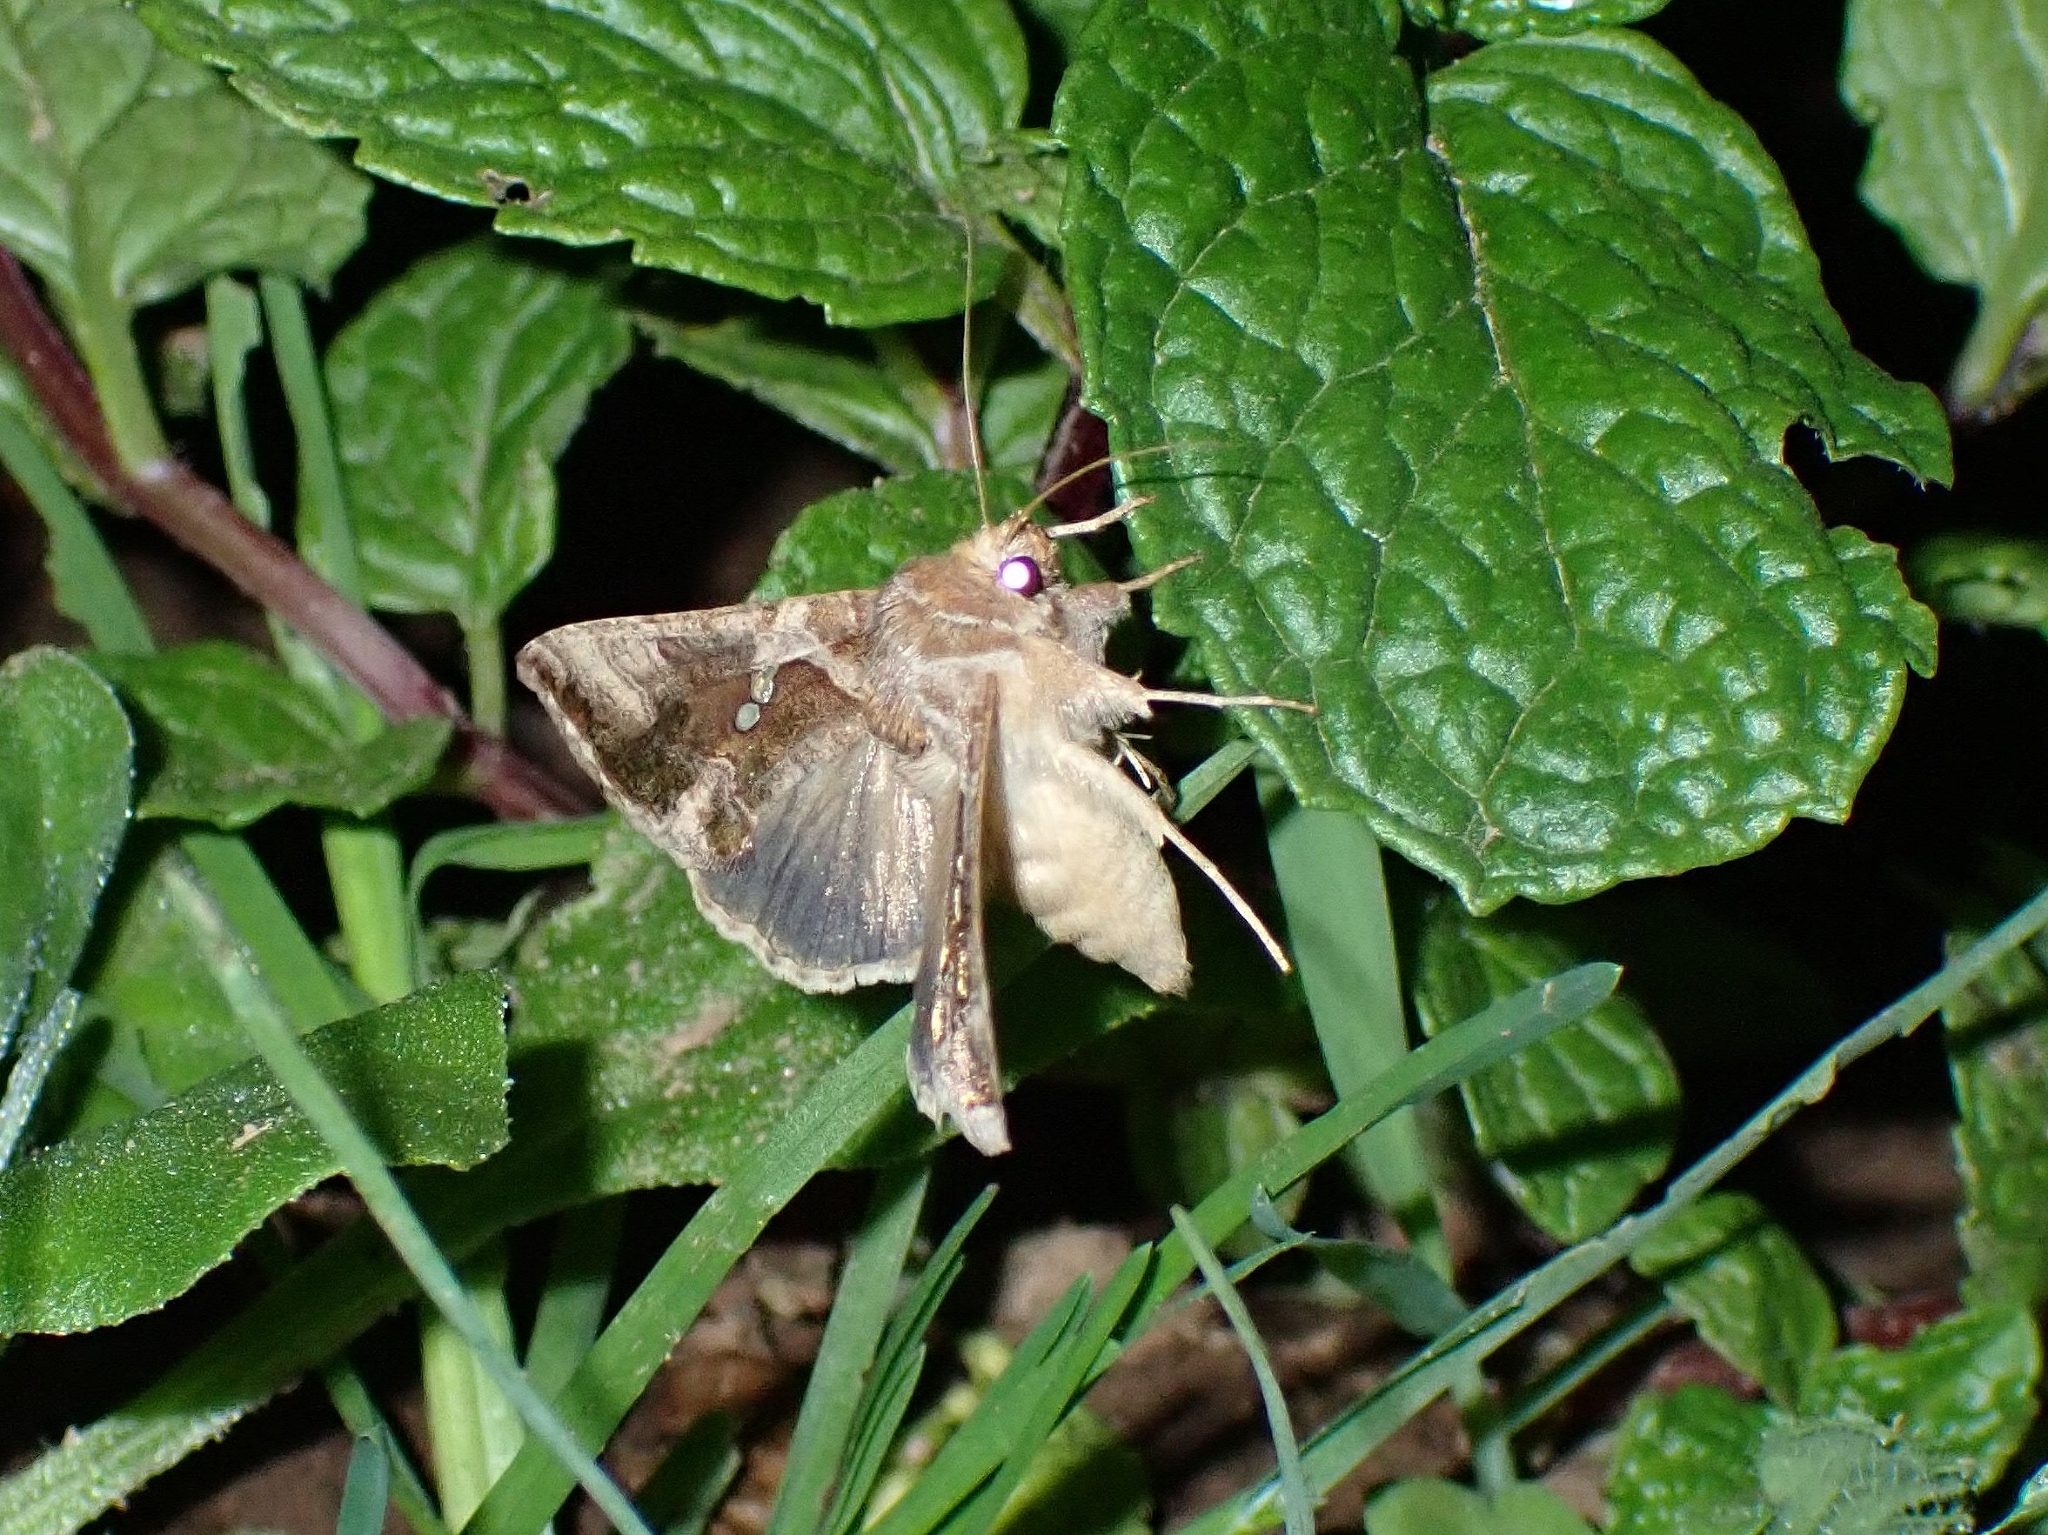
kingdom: Animalia
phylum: Arthropoda
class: Insecta
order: Lepidoptera
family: Noctuidae
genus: Chrysodeixis
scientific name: Chrysodeixis chalcites
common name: Golden twin-spot
